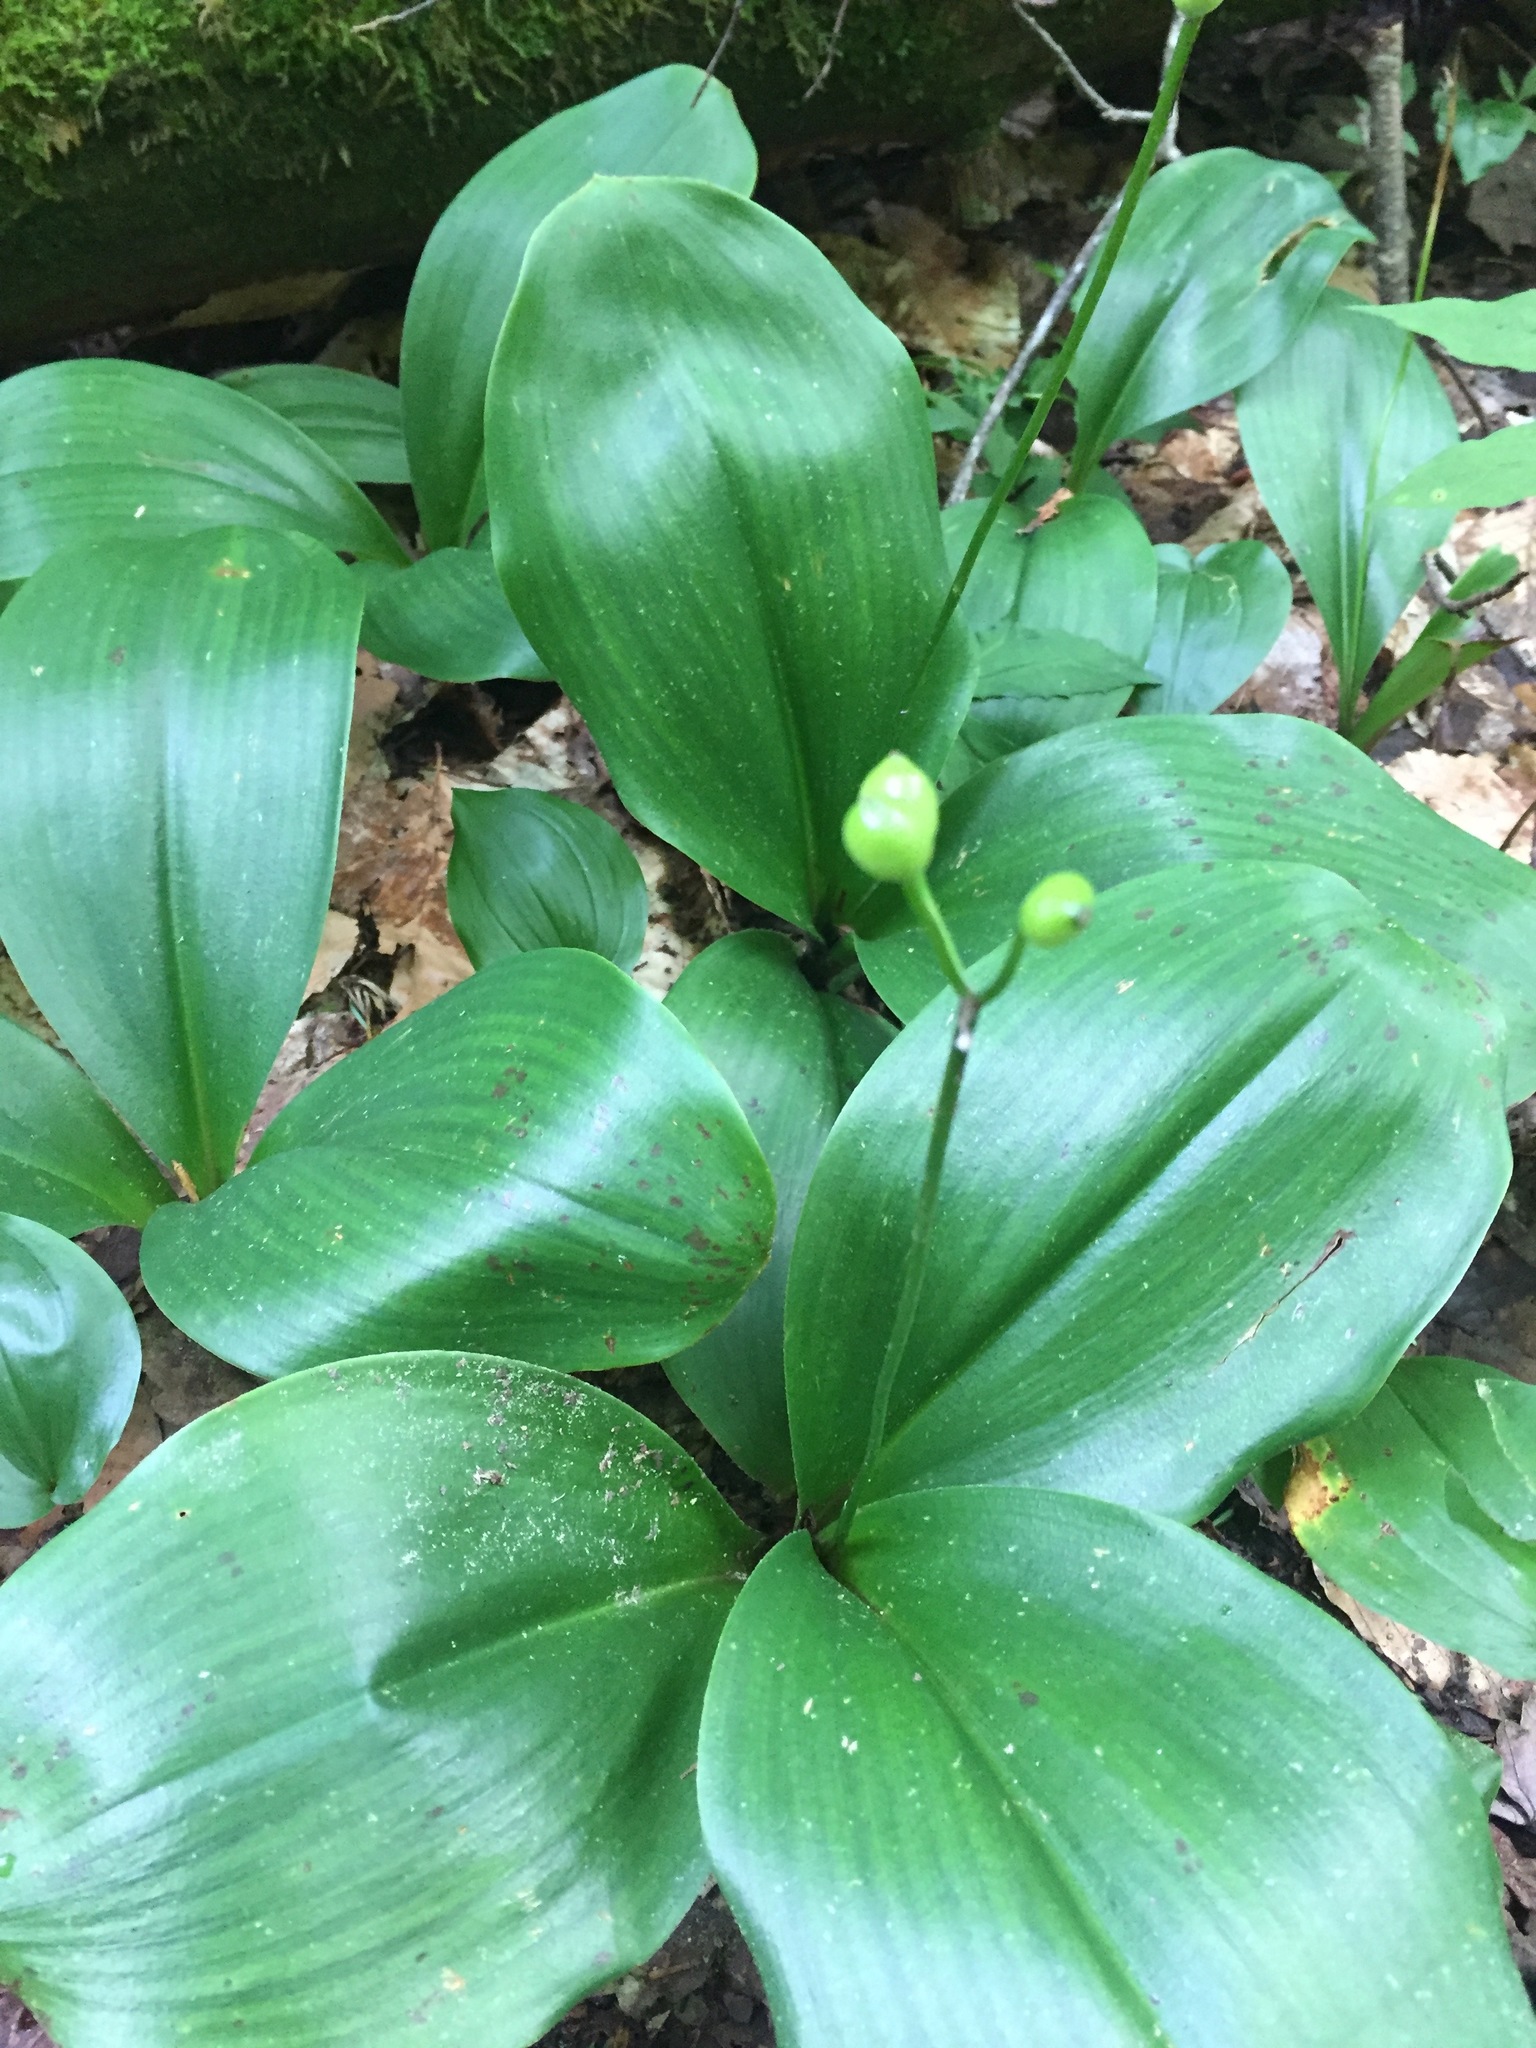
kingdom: Plantae
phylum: Tracheophyta
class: Liliopsida
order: Liliales
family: Liliaceae
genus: Clintonia
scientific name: Clintonia borealis
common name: Yellow clintonia
